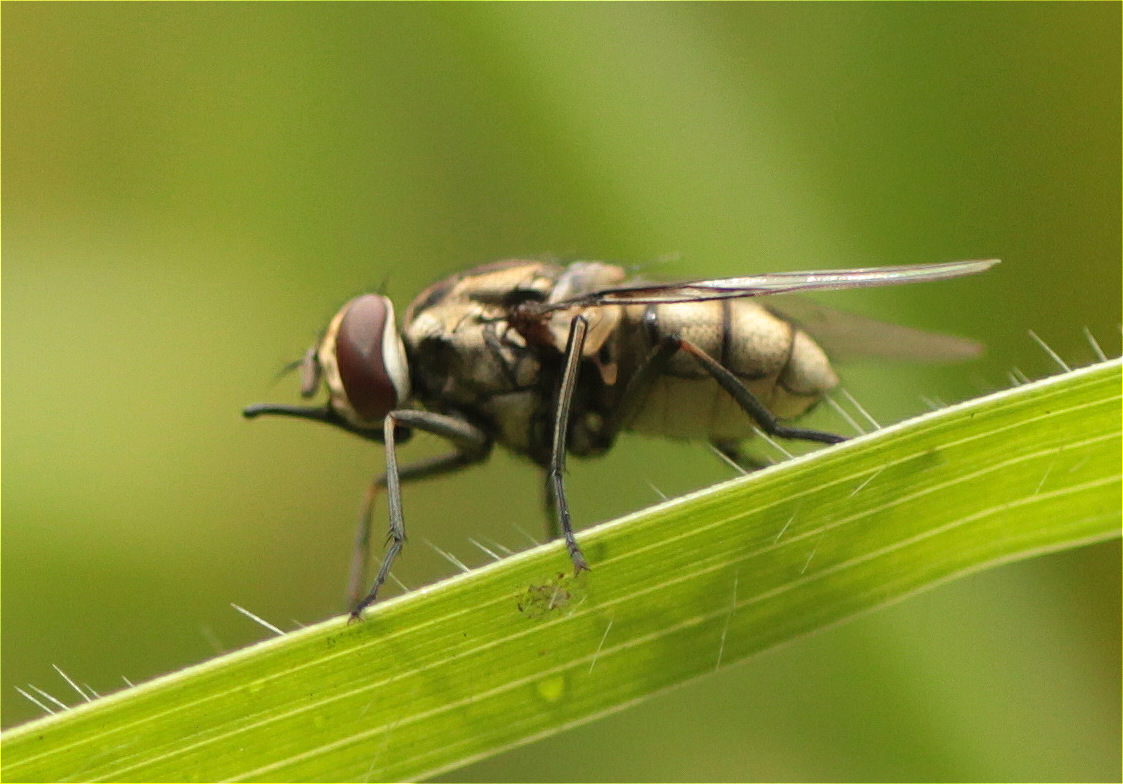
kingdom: Animalia
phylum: Arthropoda
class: Insecta
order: Diptera
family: Muscidae
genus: Stomoxys
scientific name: Stomoxys calcitrans
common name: Stable fly
